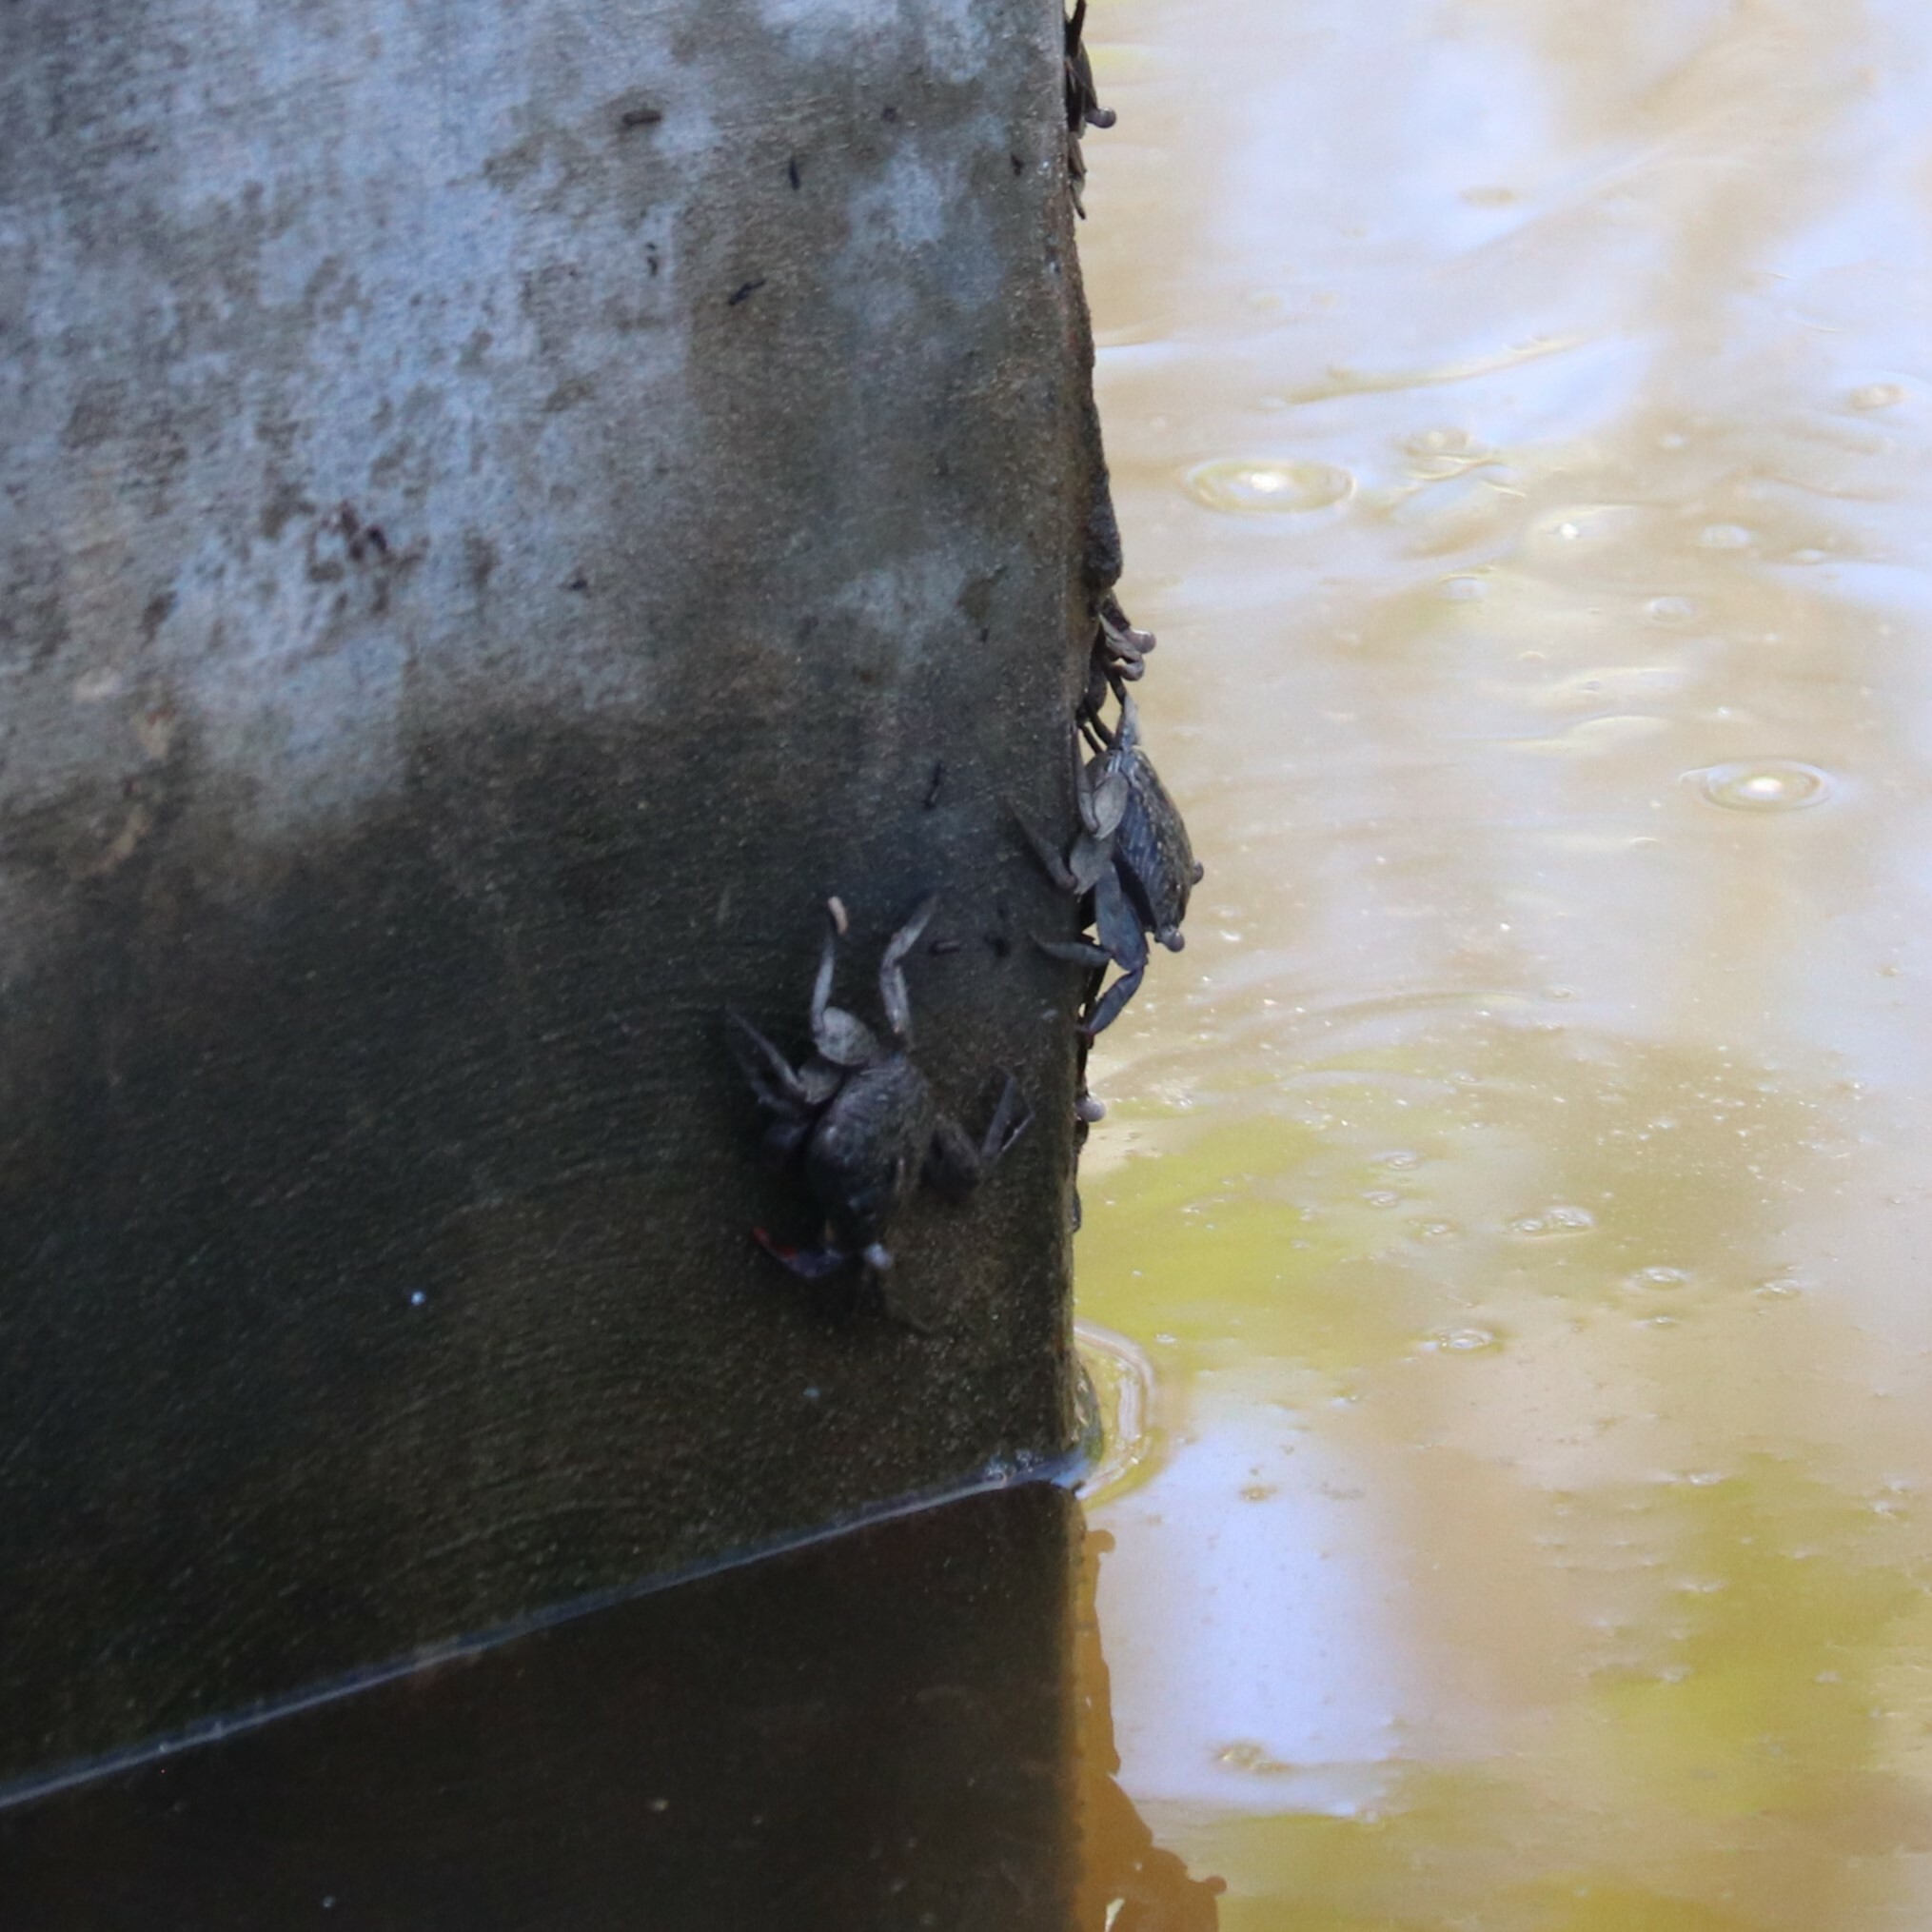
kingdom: Animalia
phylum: Arthropoda
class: Malacostraca
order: Decapoda
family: Sesarmidae
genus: Aratus
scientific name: Aratus pisonii
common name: Mangrove crab
